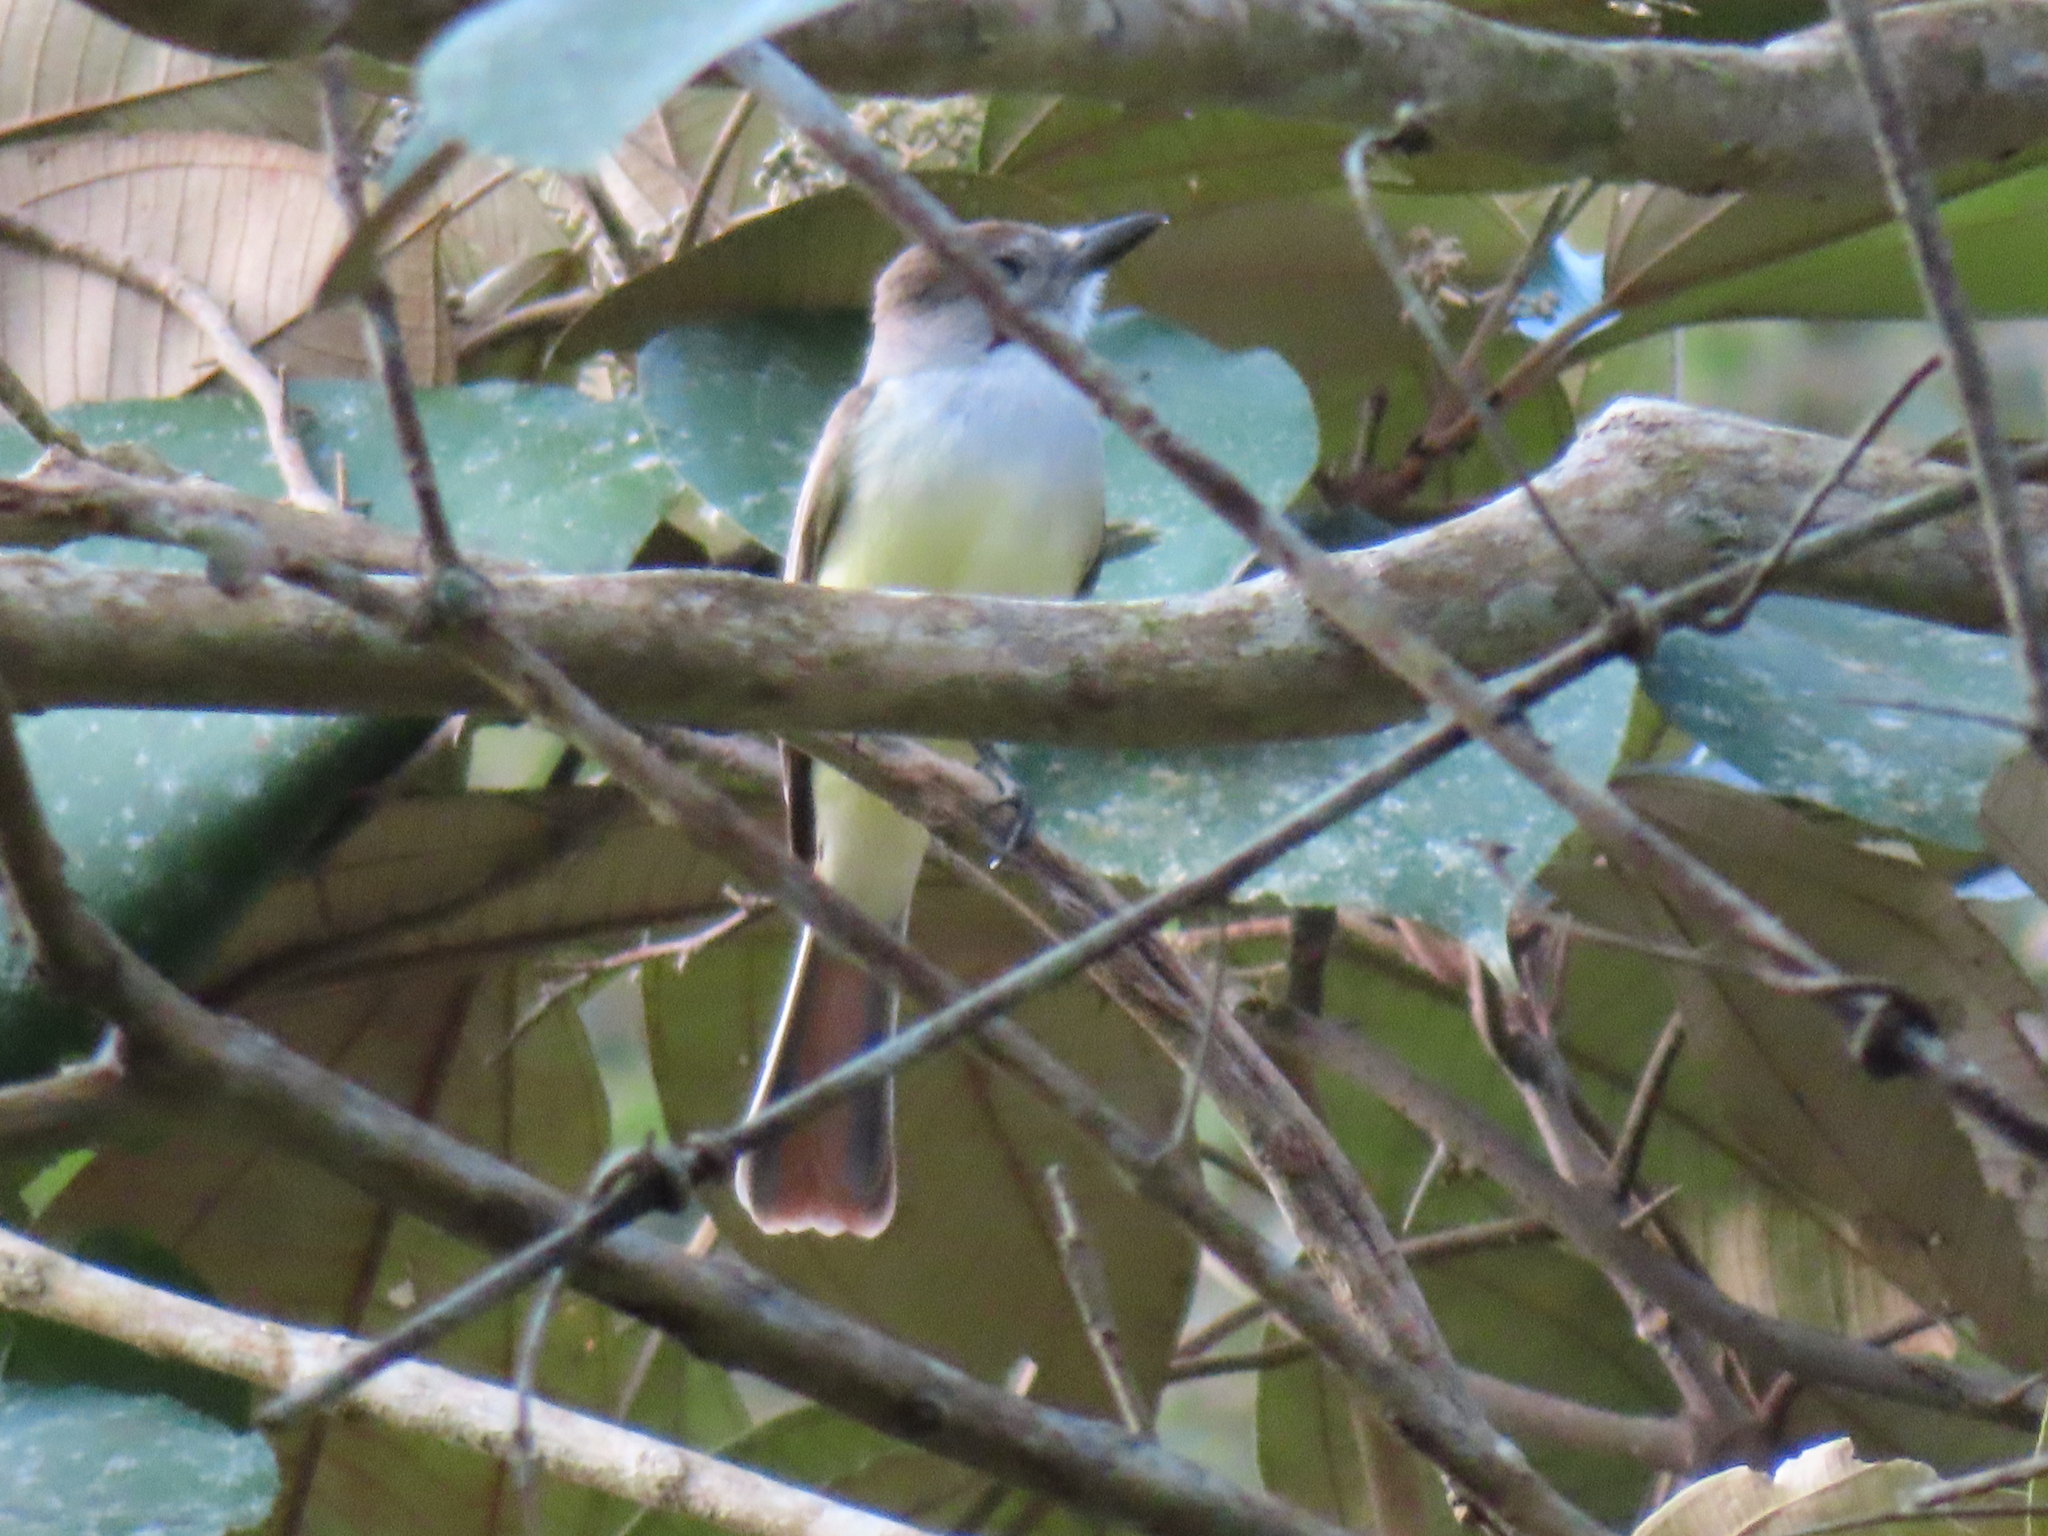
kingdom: Animalia
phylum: Chordata
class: Aves
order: Passeriformes
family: Tyrannidae
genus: Myiarchus
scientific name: Myiarchus tyrannulus
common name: Brown-crested flycatcher
